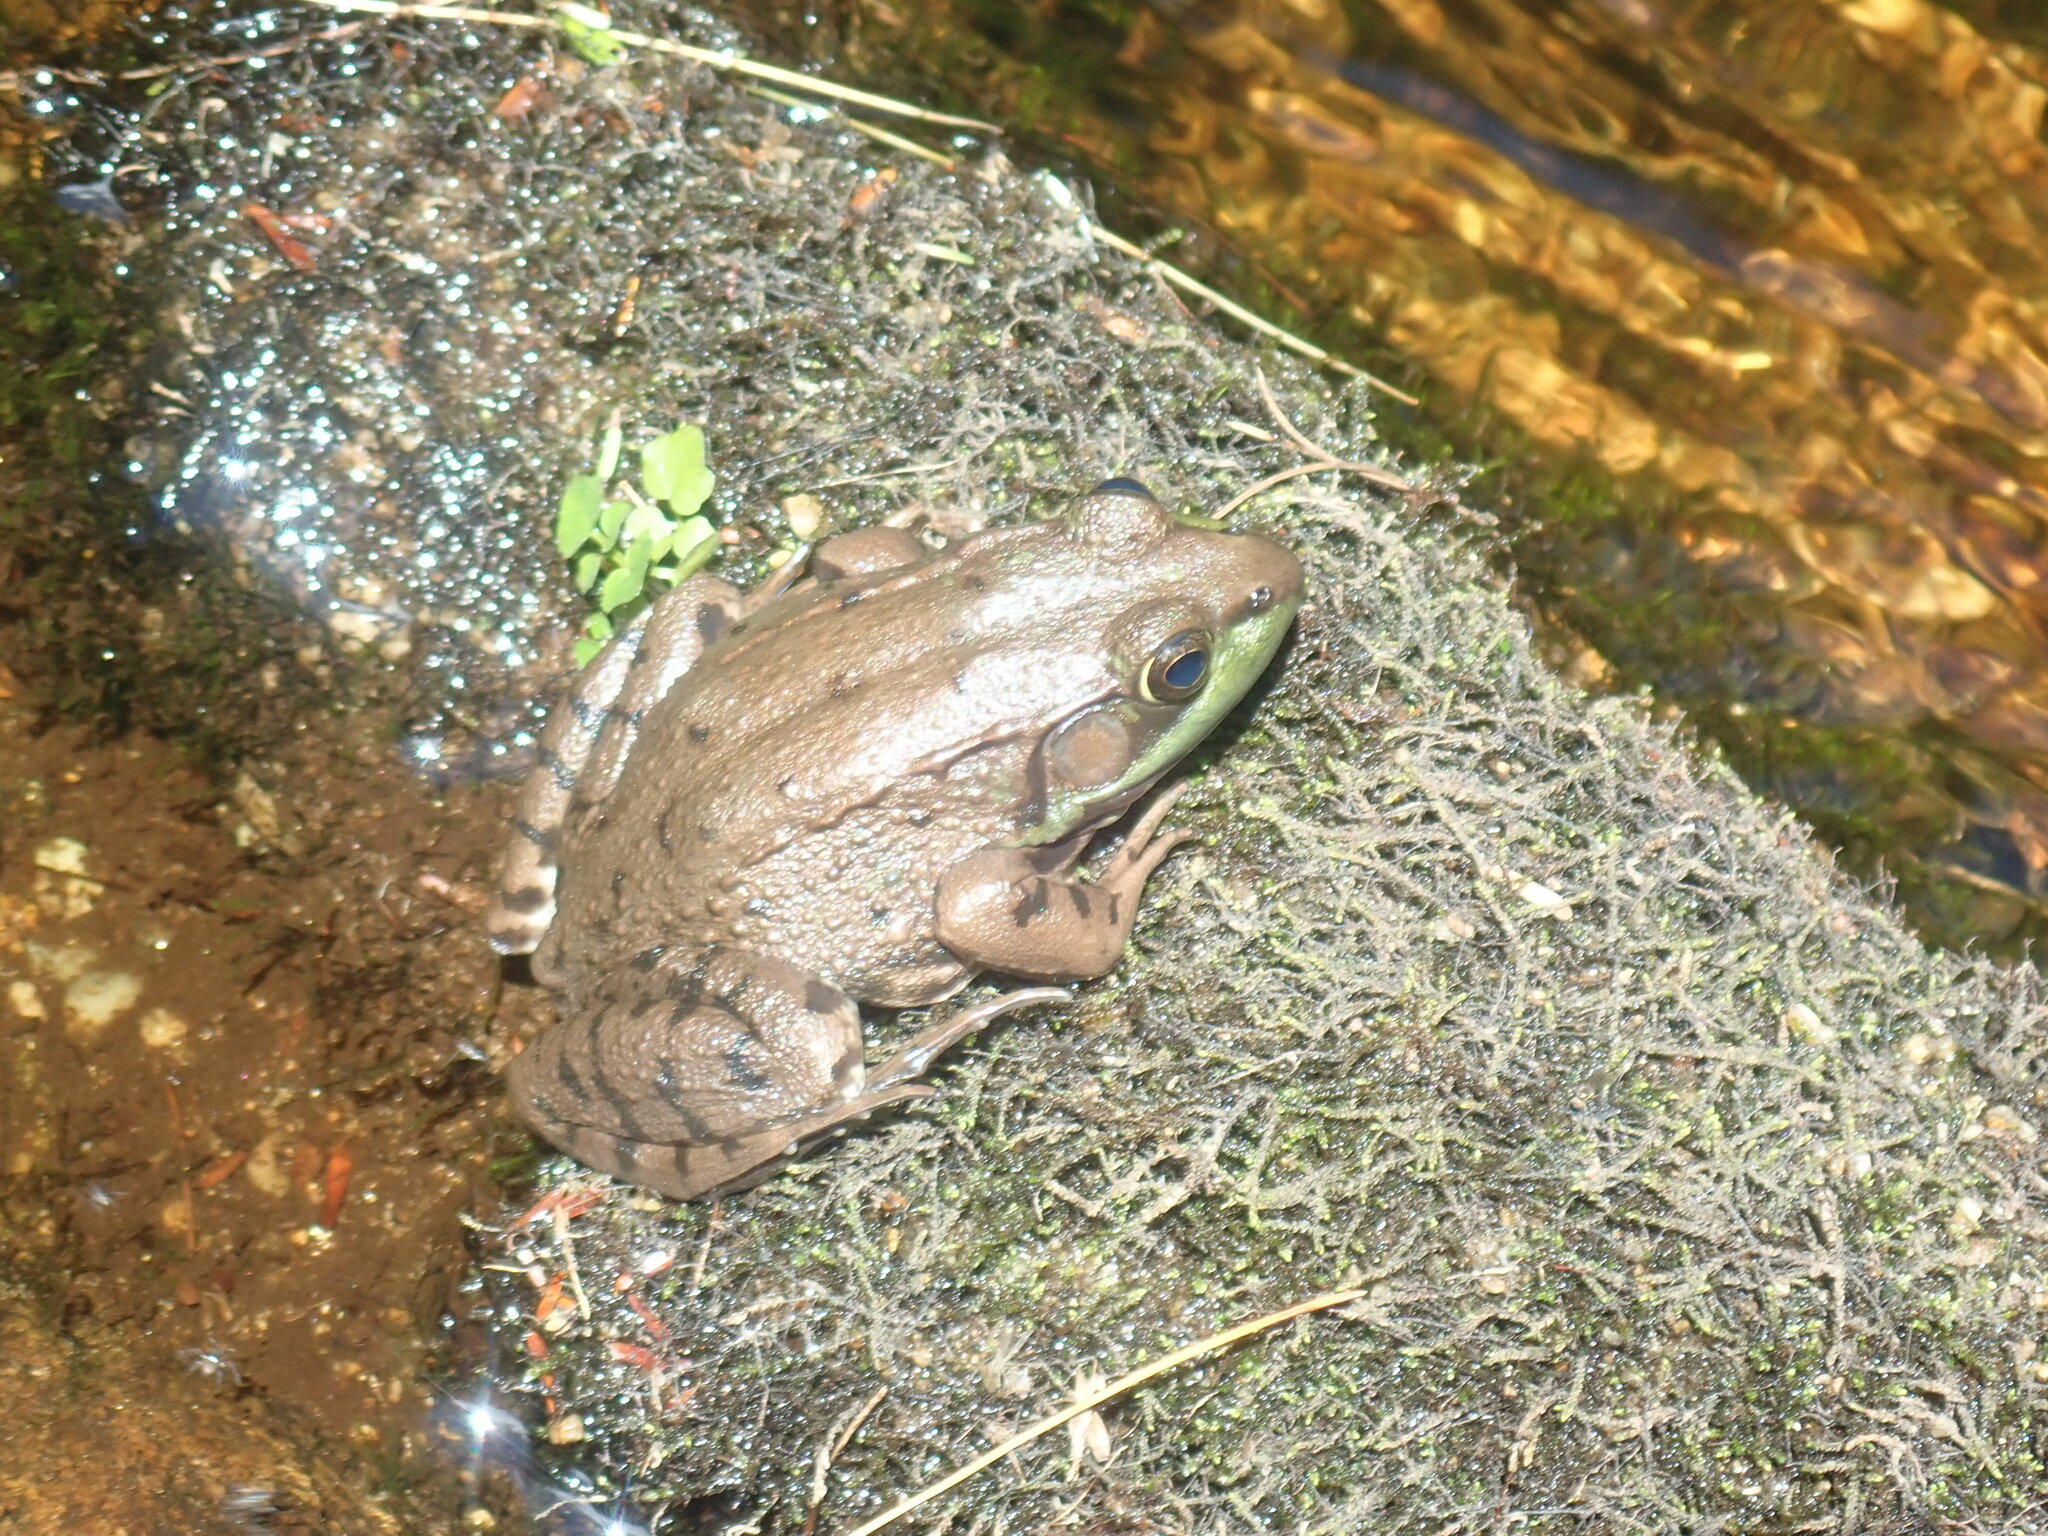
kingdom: Animalia
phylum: Chordata
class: Amphibia
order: Anura
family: Ranidae
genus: Lithobates
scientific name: Lithobates clamitans
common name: Green frog
